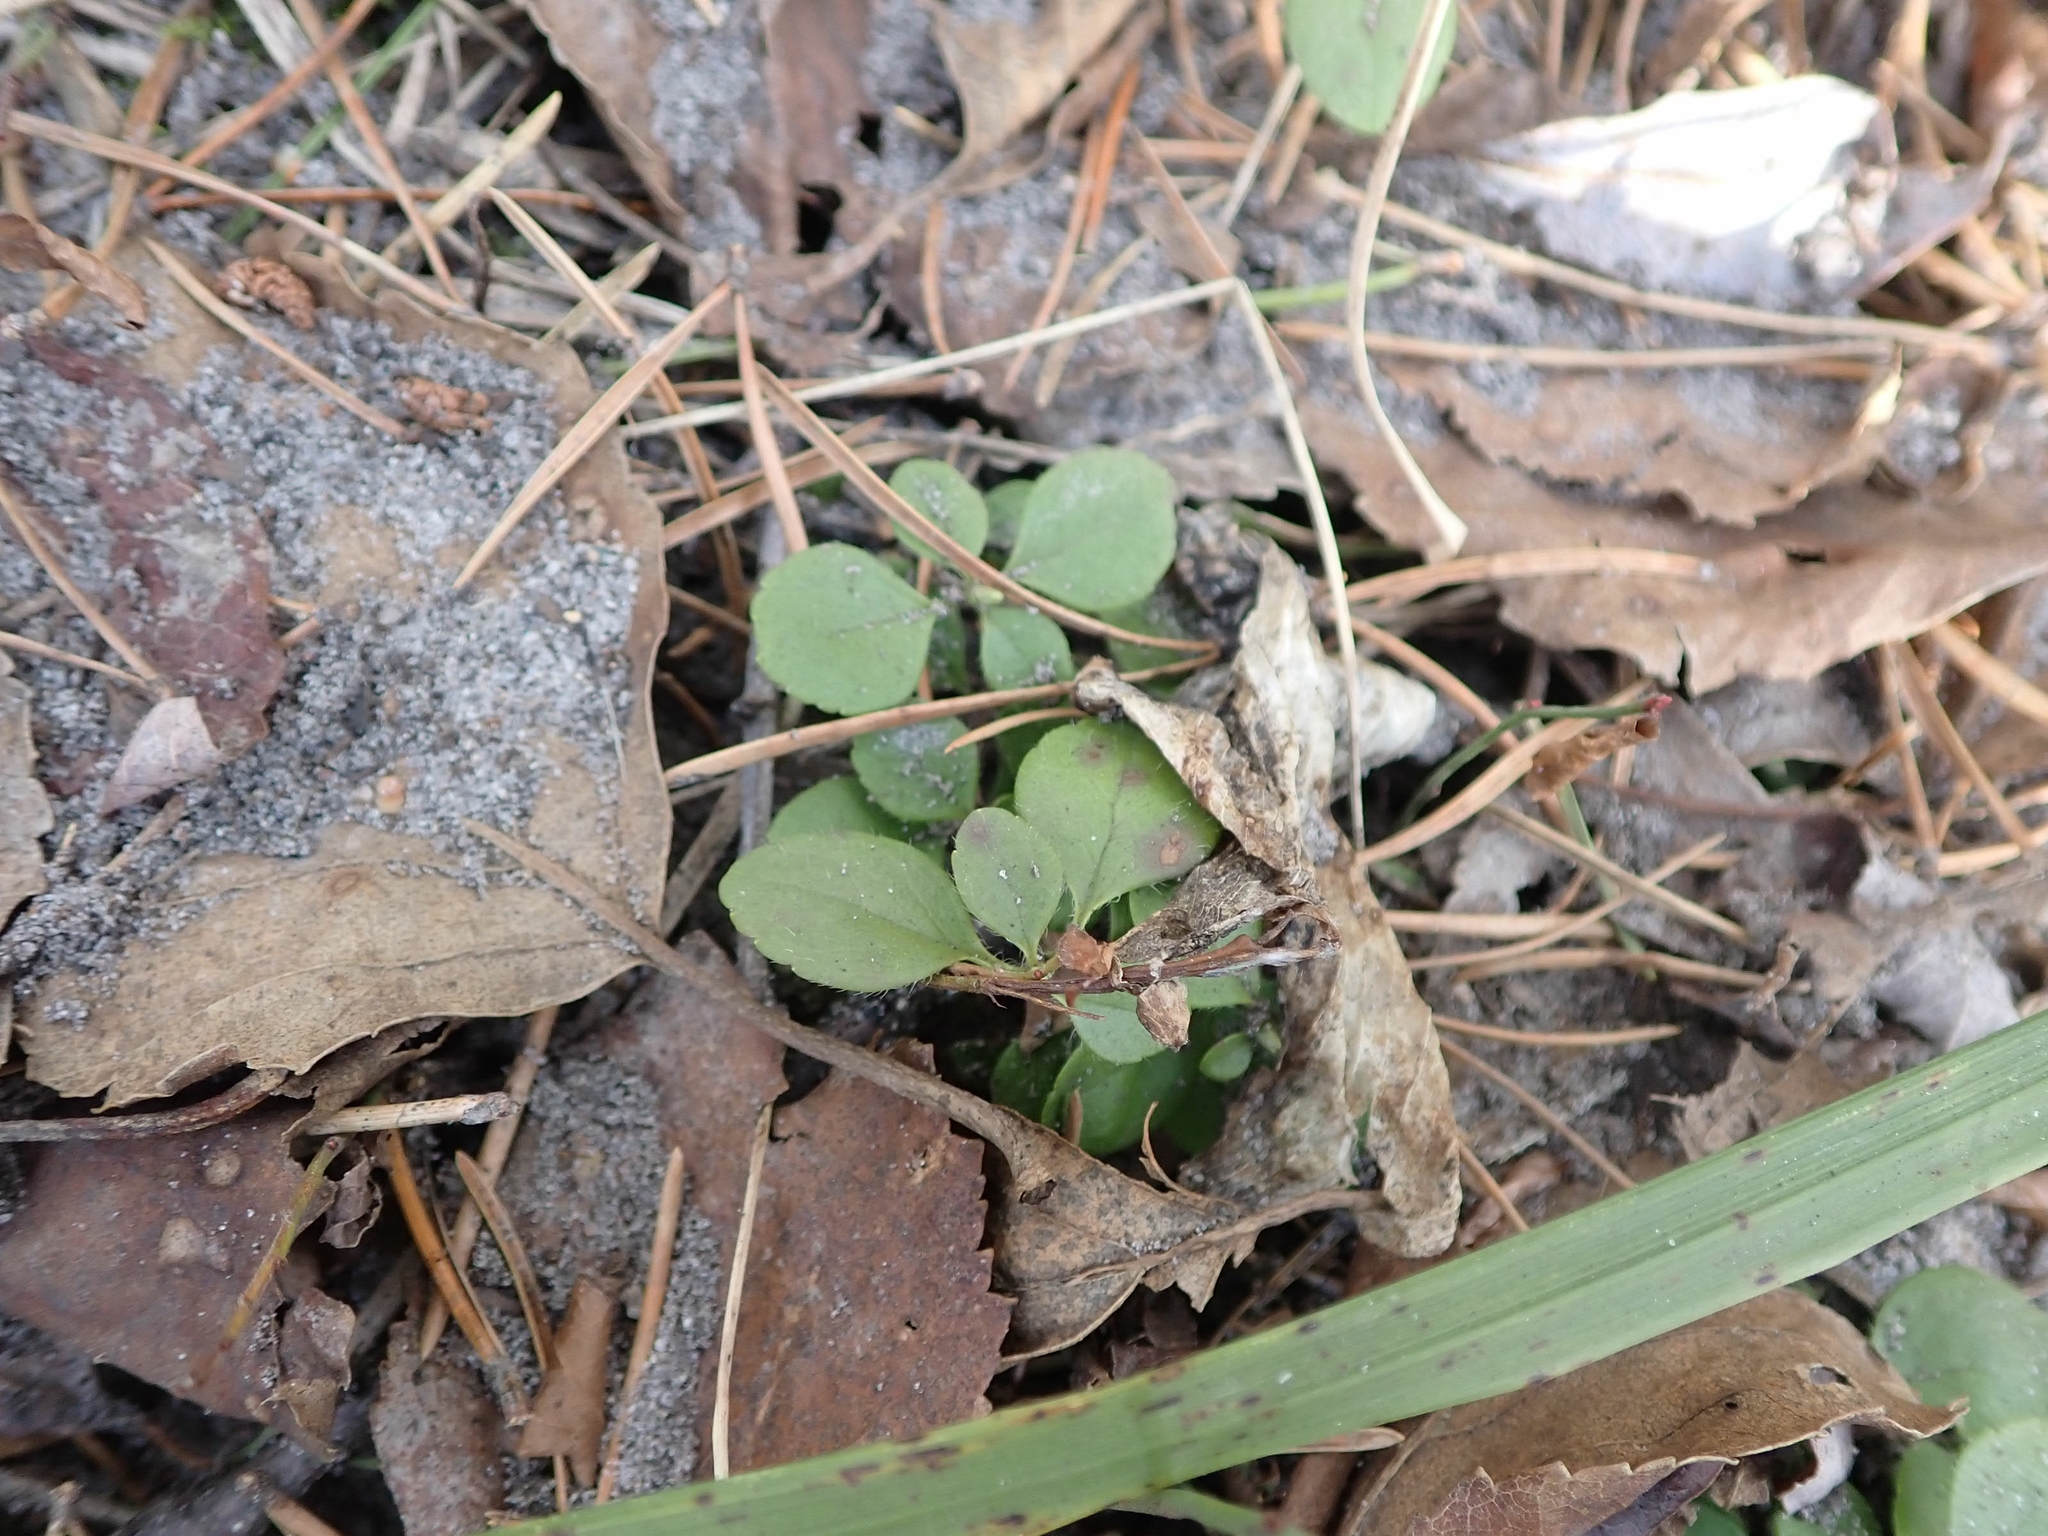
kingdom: Plantae
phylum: Tracheophyta
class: Magnoliopsida
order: Dipsacales
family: Caprifoliaceae
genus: Linnaea
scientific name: Linnaea borealis
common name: Twinflower
